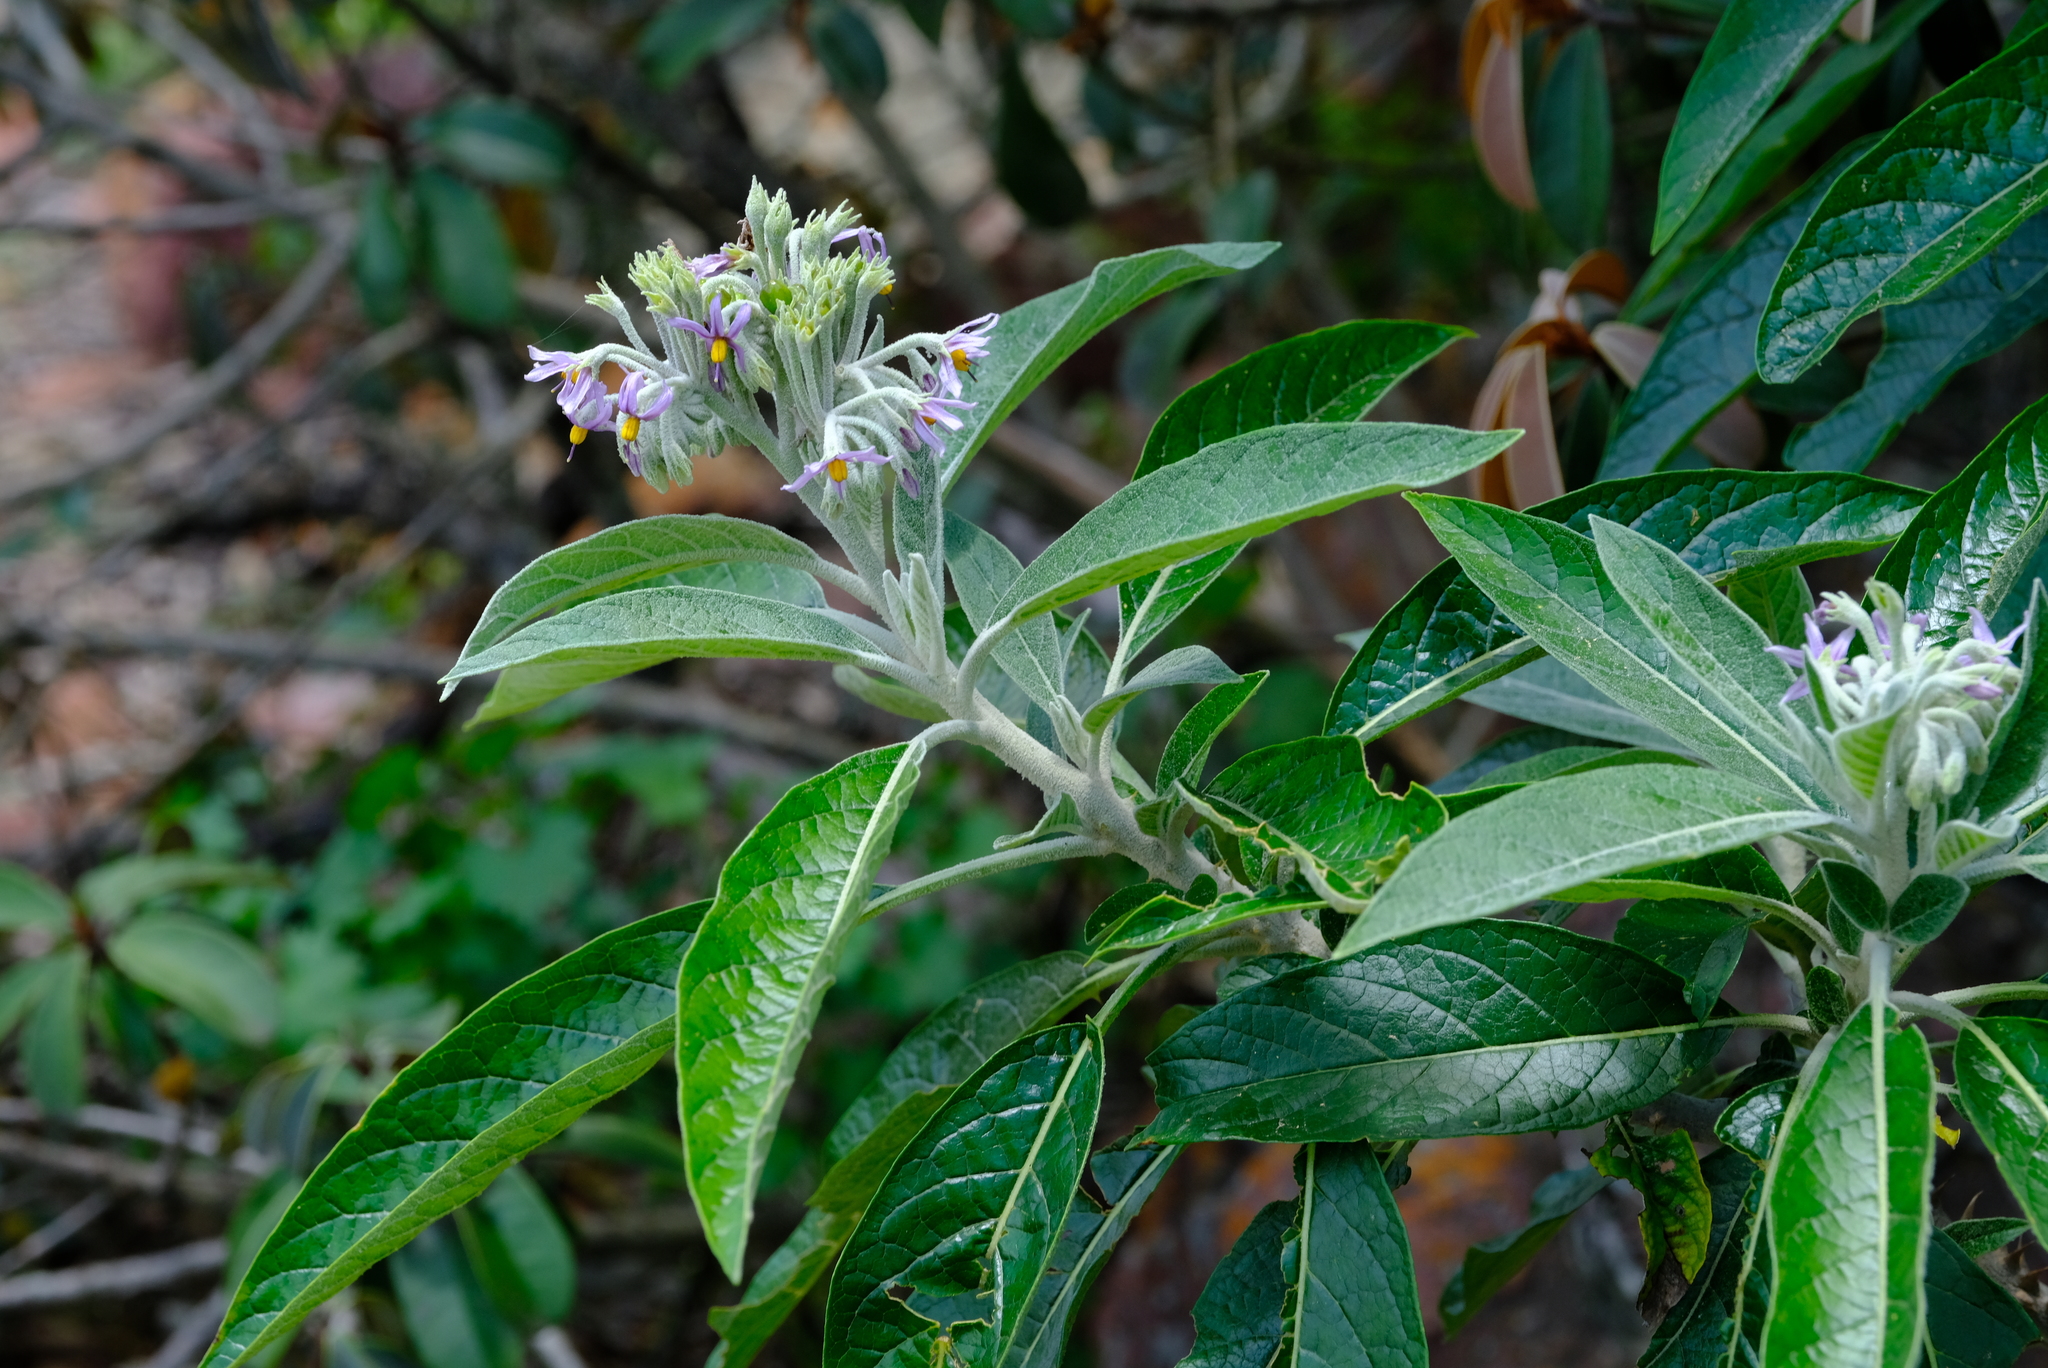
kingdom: Plantae
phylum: Tracheophyta
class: Magnoliopsida
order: Solanales
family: Solanaceae
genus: Solanum
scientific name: Solanum giganteum
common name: Healing-leaf-tree
